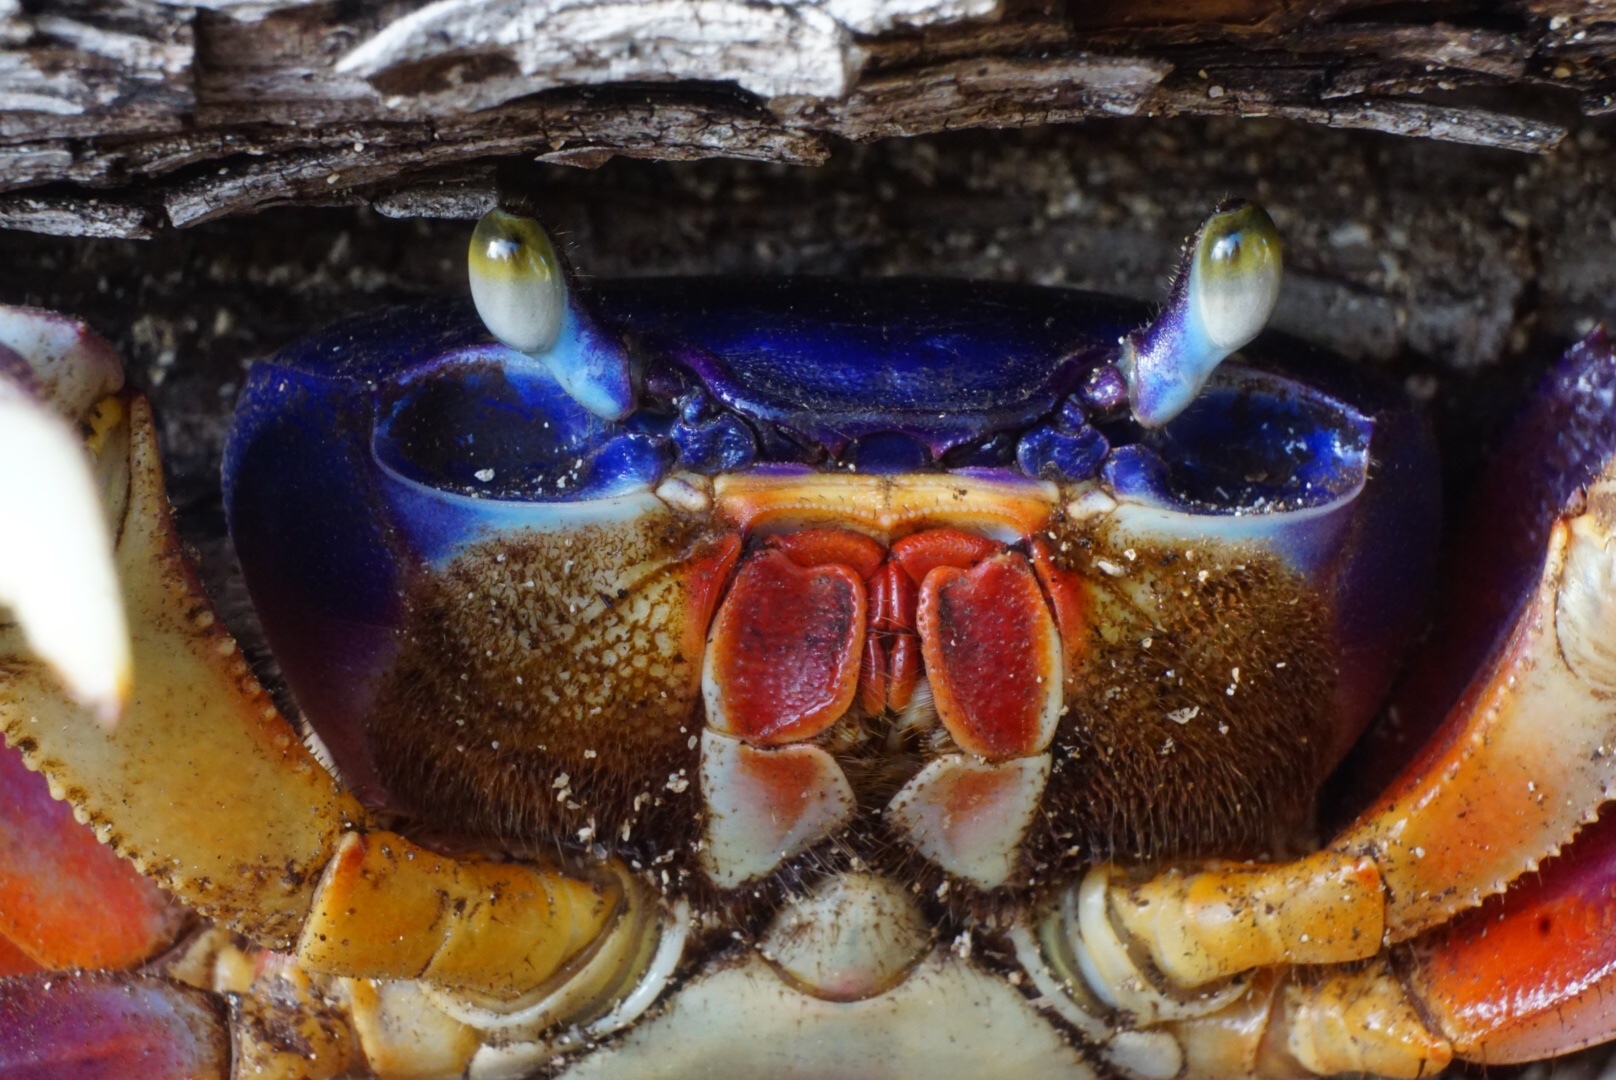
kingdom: Animalia
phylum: Arthropoda
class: Malacostraca
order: Decapoda
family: Gecarcinidae
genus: Cardisoma
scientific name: Cardisoma guanhumi
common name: Great land crab
